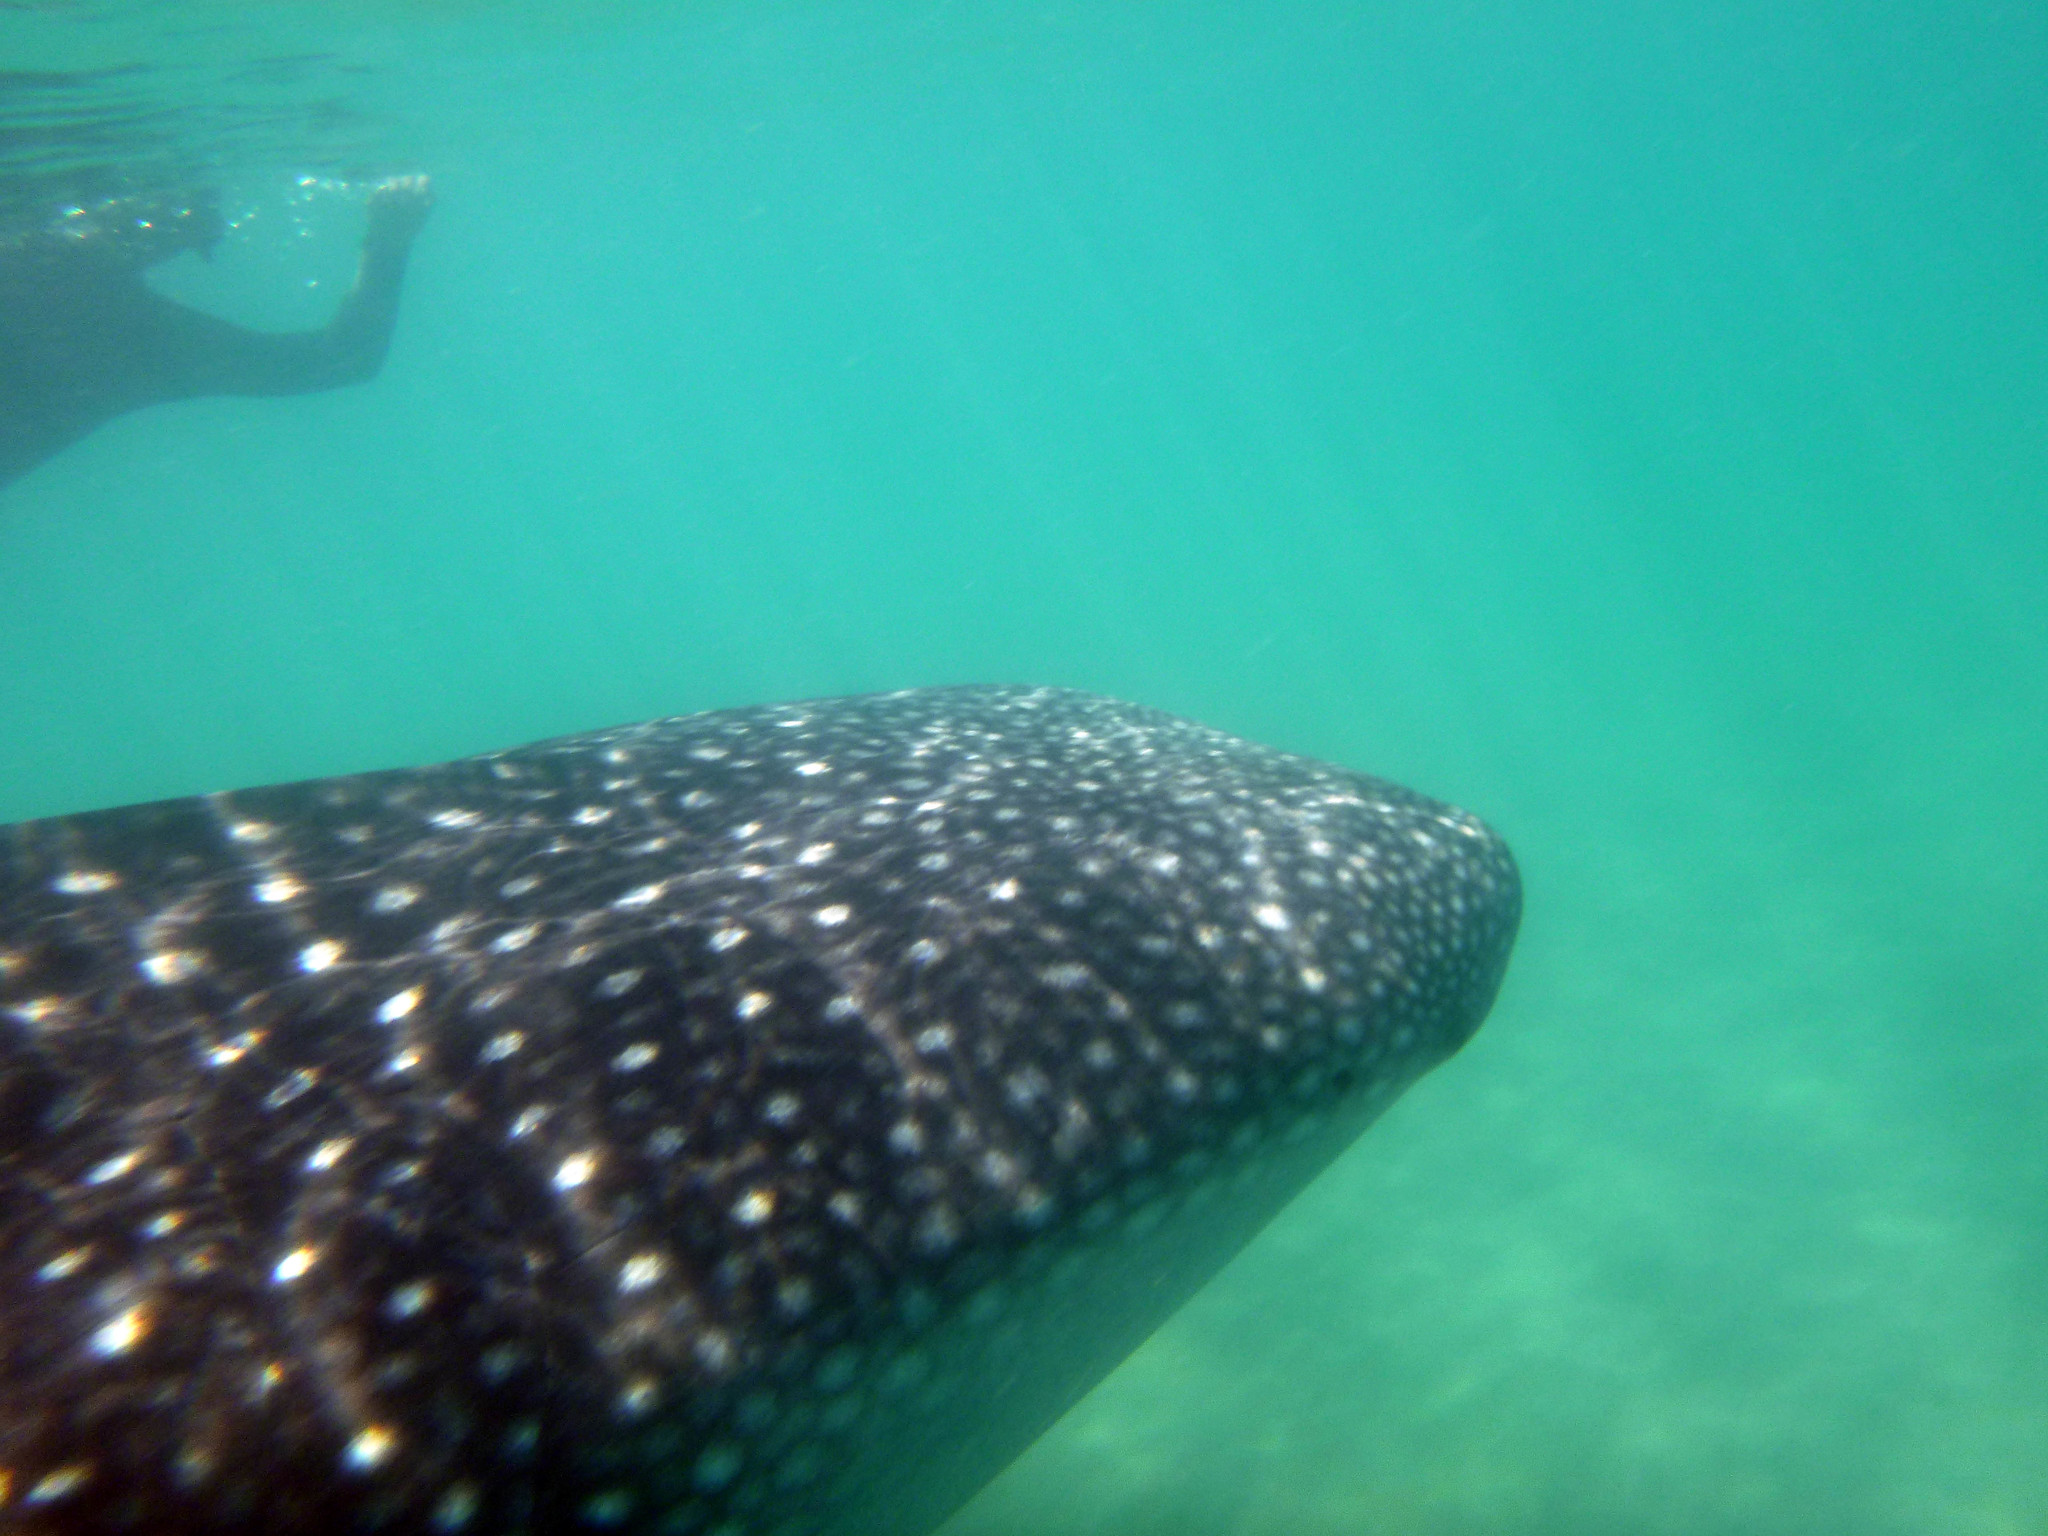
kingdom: Animalia
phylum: Chordata
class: Elasmobranchii
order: Orectolobiformes
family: Rhincodontidae
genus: Rhincodon
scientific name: Rhincodon typus
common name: Whale shark
